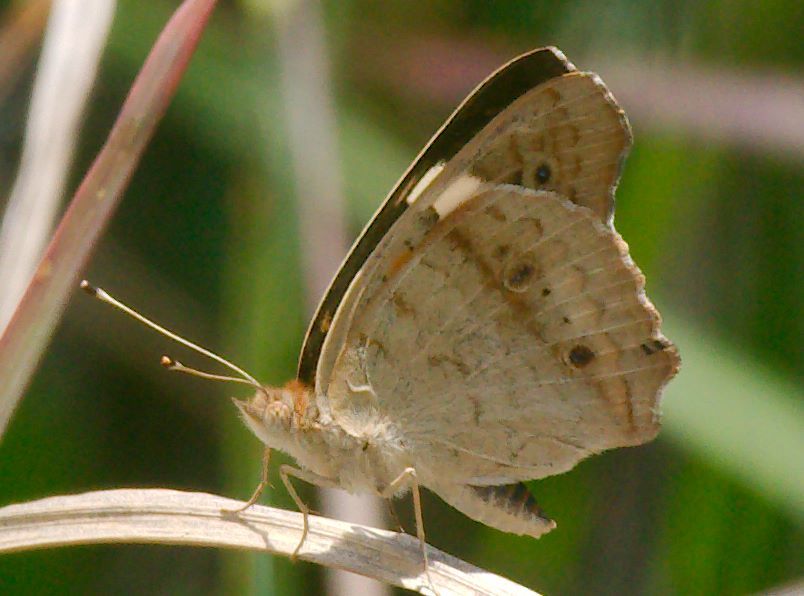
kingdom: Animalia
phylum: Arthropoda
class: Insecta
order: Lepidoptera
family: Nymphalidae
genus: Junonia
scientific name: Junonia coenia
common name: Common buckeye
